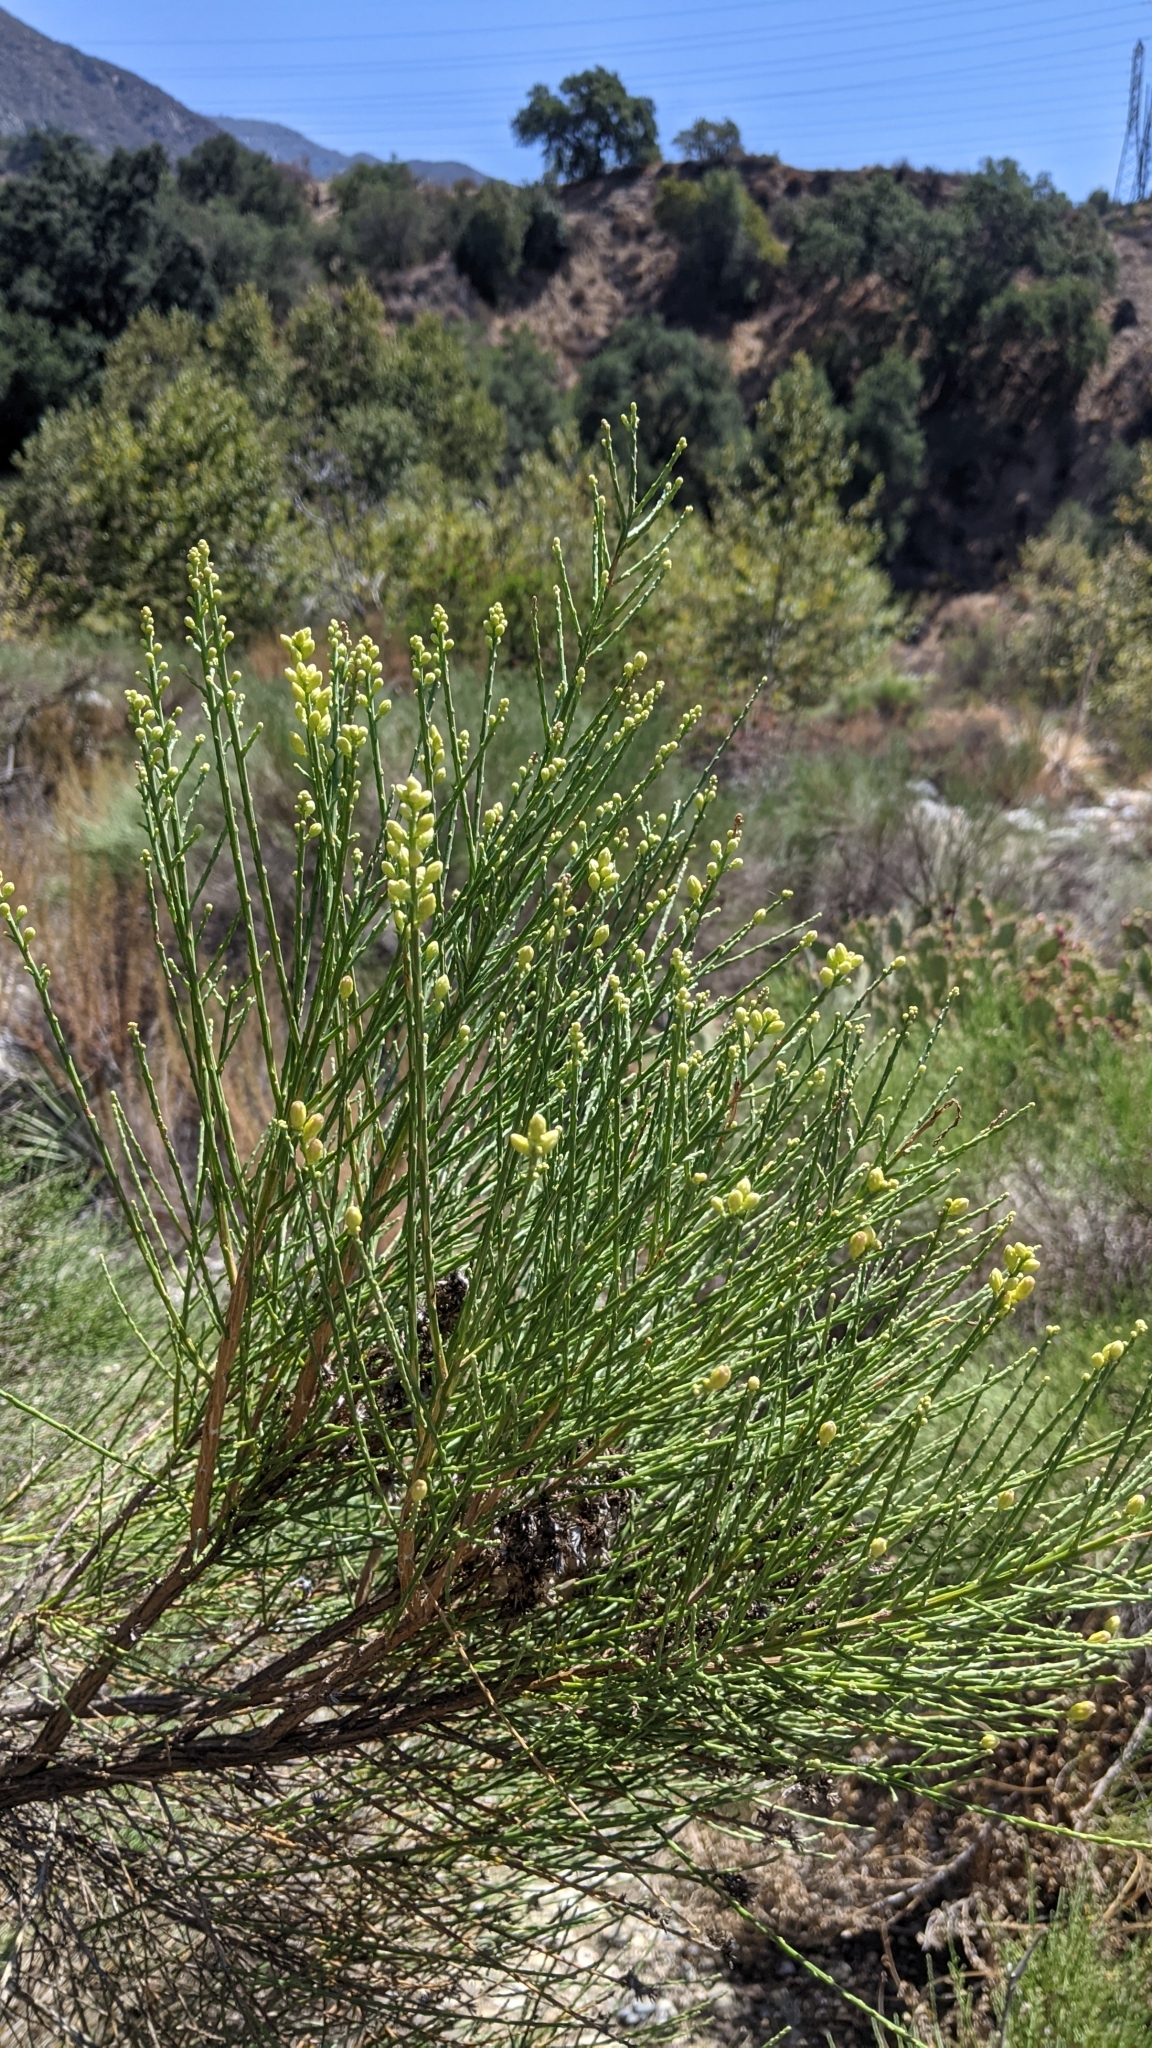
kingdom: Plantae
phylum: Tracheophyta
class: Magnoliopsida
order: Asterales
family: Asteraceae
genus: Lepidospartum
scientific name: Lepidospartum squamatum
